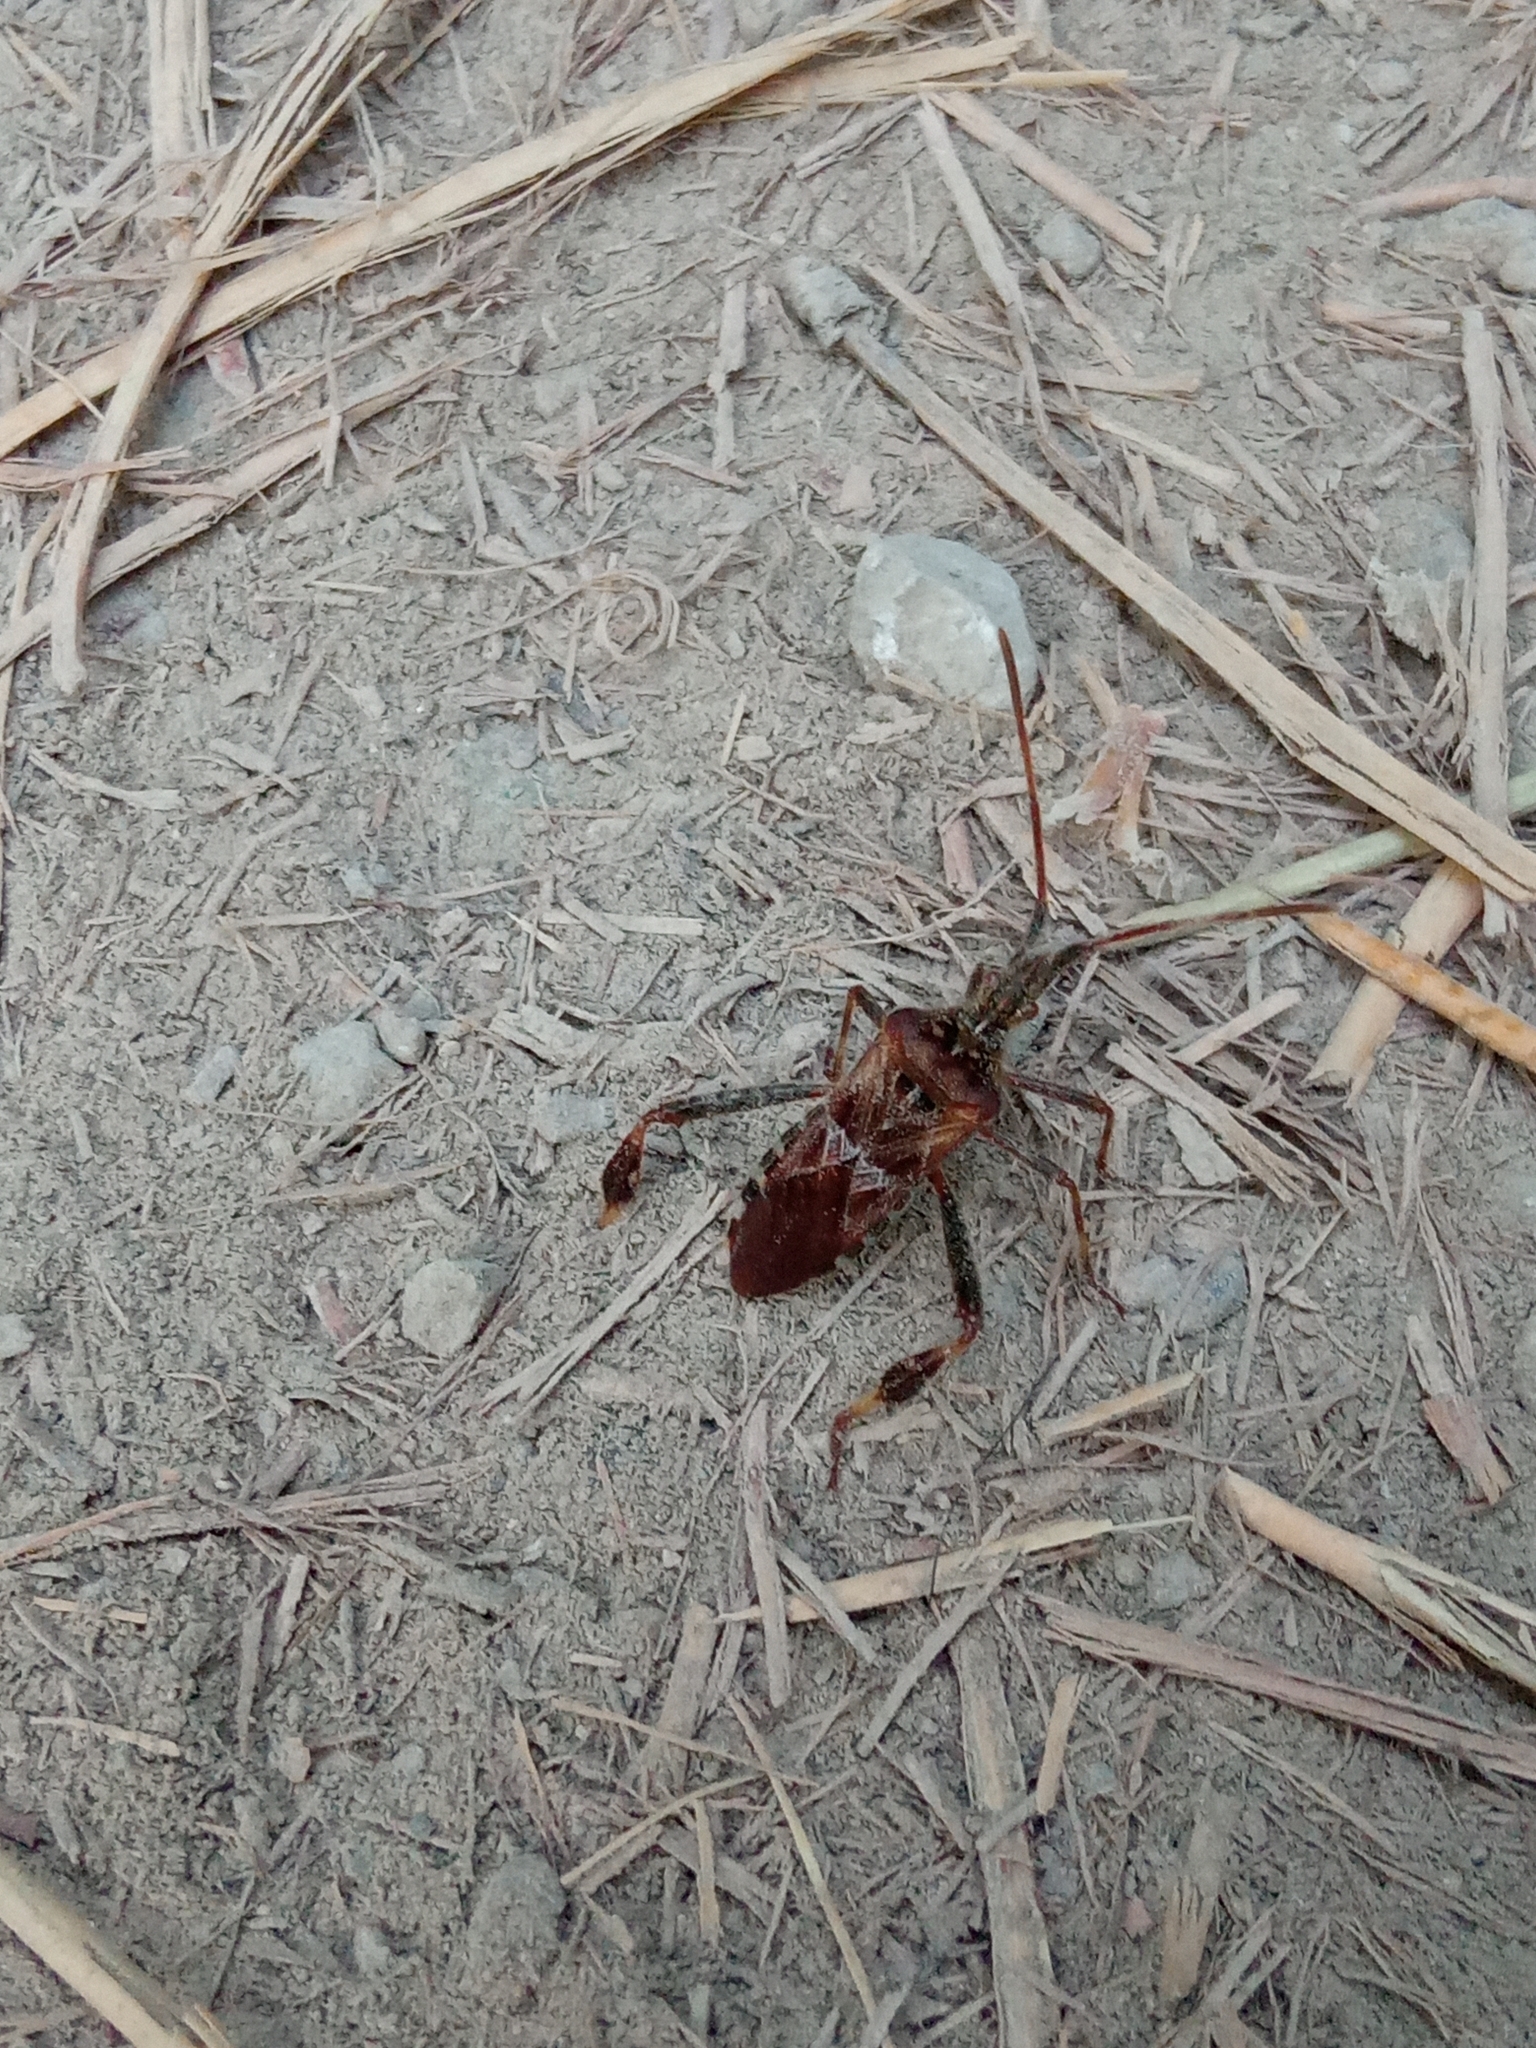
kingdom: Animalia
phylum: Arthropoda
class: Insecta
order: Hemiptera
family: Coreidae
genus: Leptoglossus
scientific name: Leptoglossus occidentalis
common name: Western conifer-seed bug
